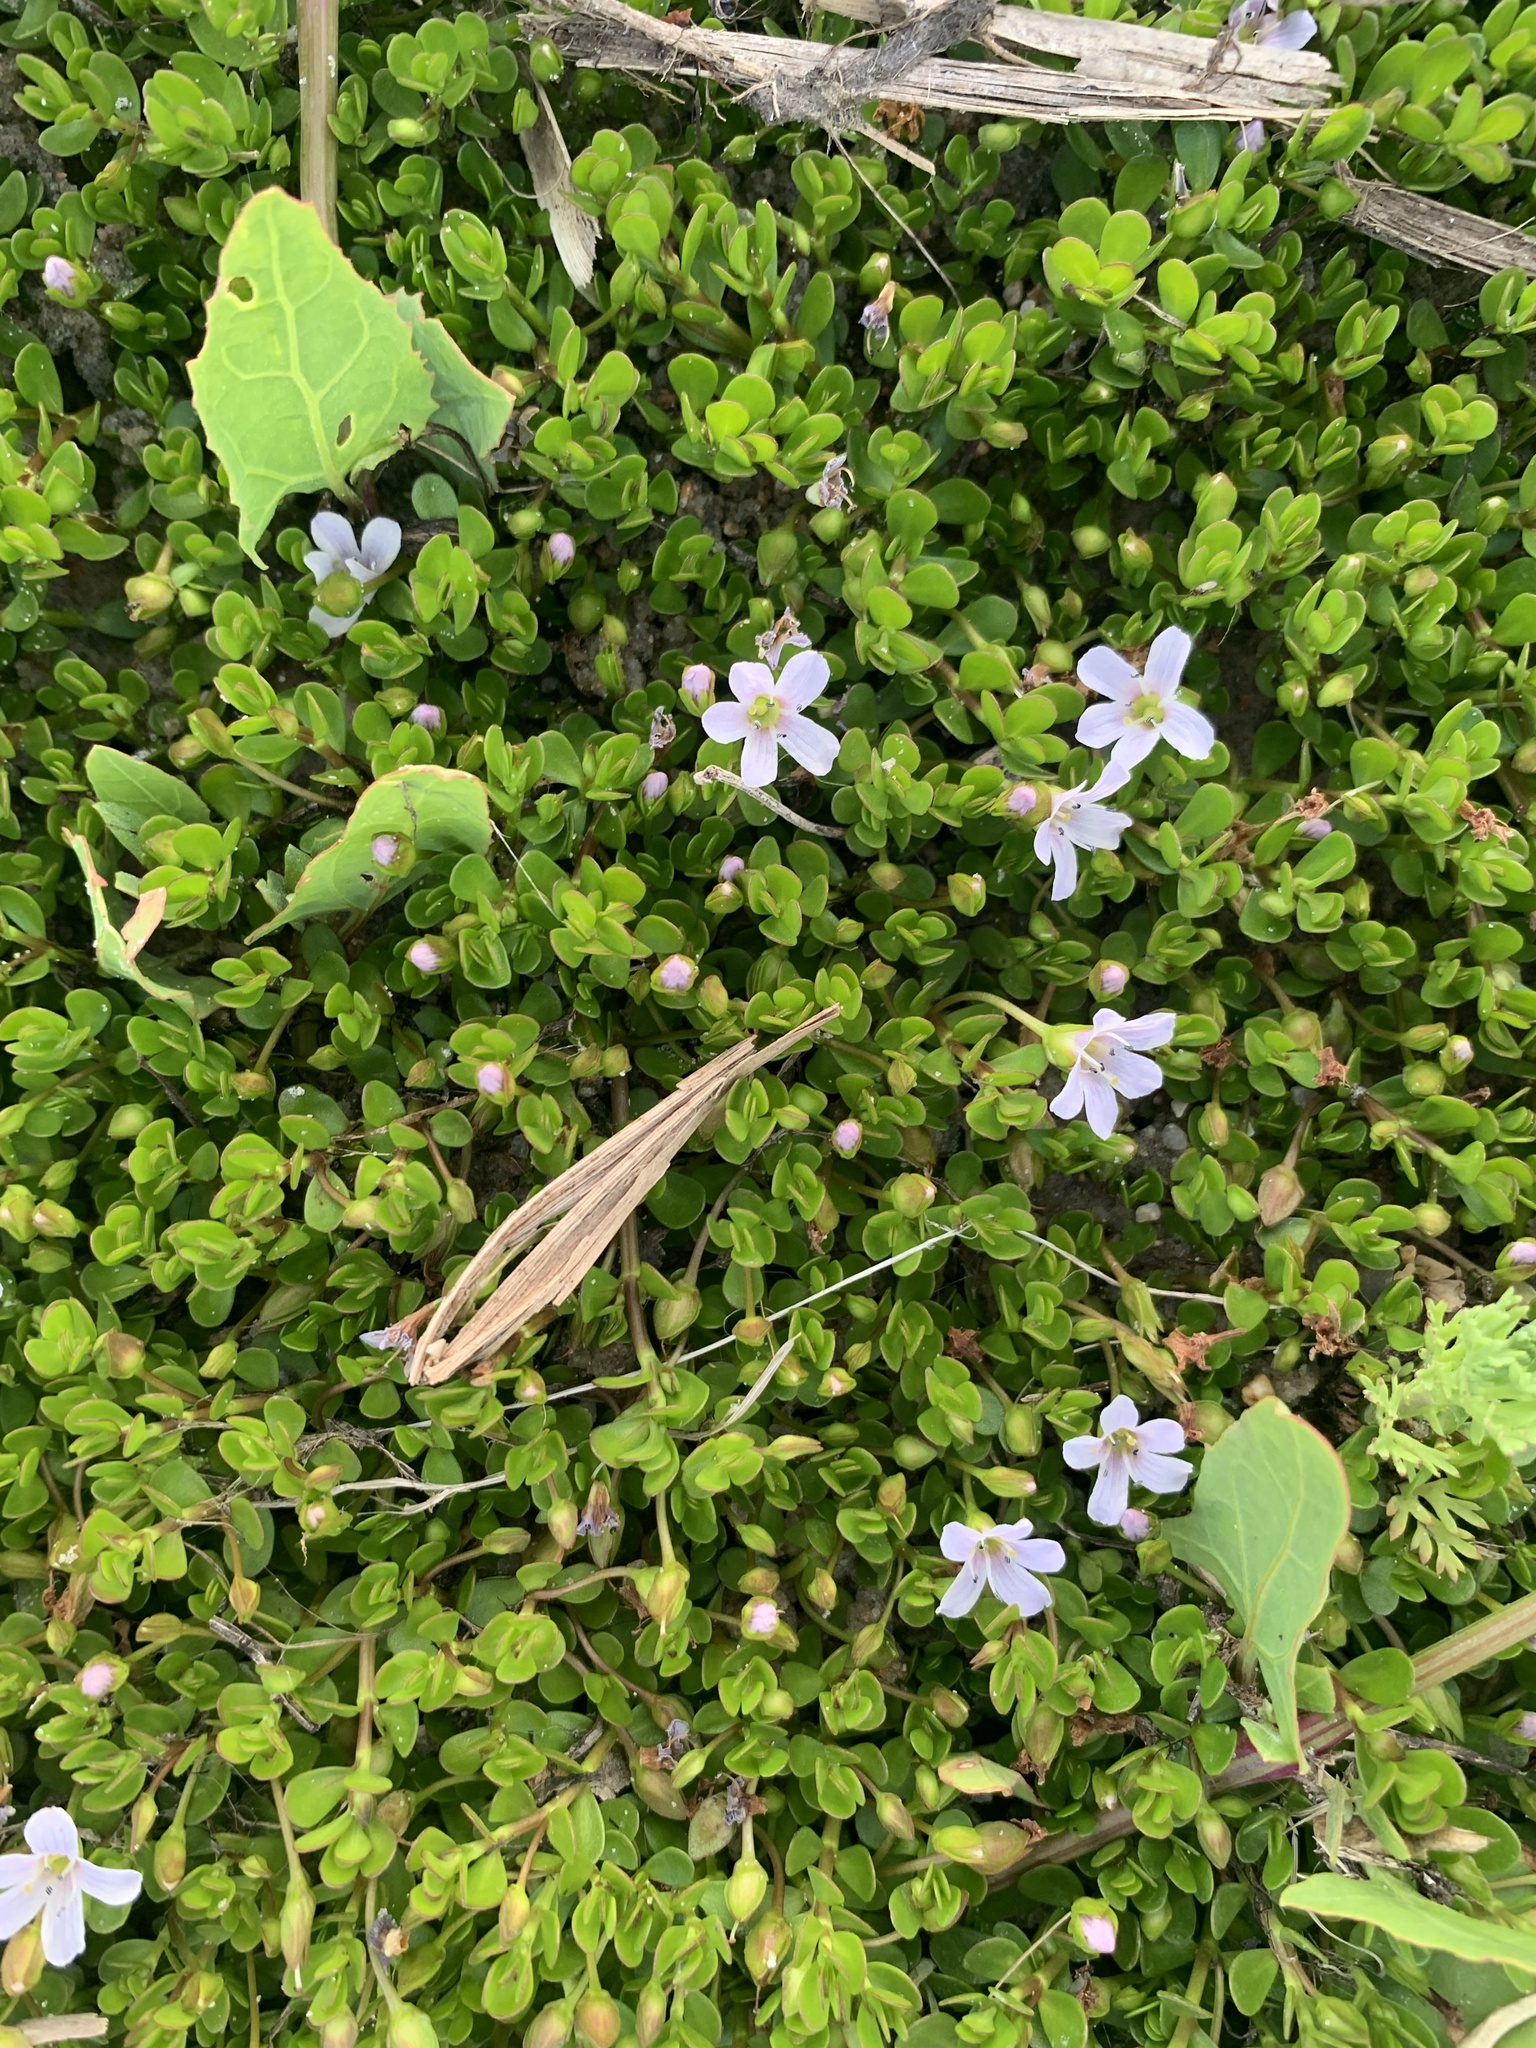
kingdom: Plantae
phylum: Tracheophyta
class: Magnoliopsida
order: Lamiales
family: Plantaginaceae
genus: Bacopa
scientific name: Bacopa monnieri
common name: Indian-pennywort
